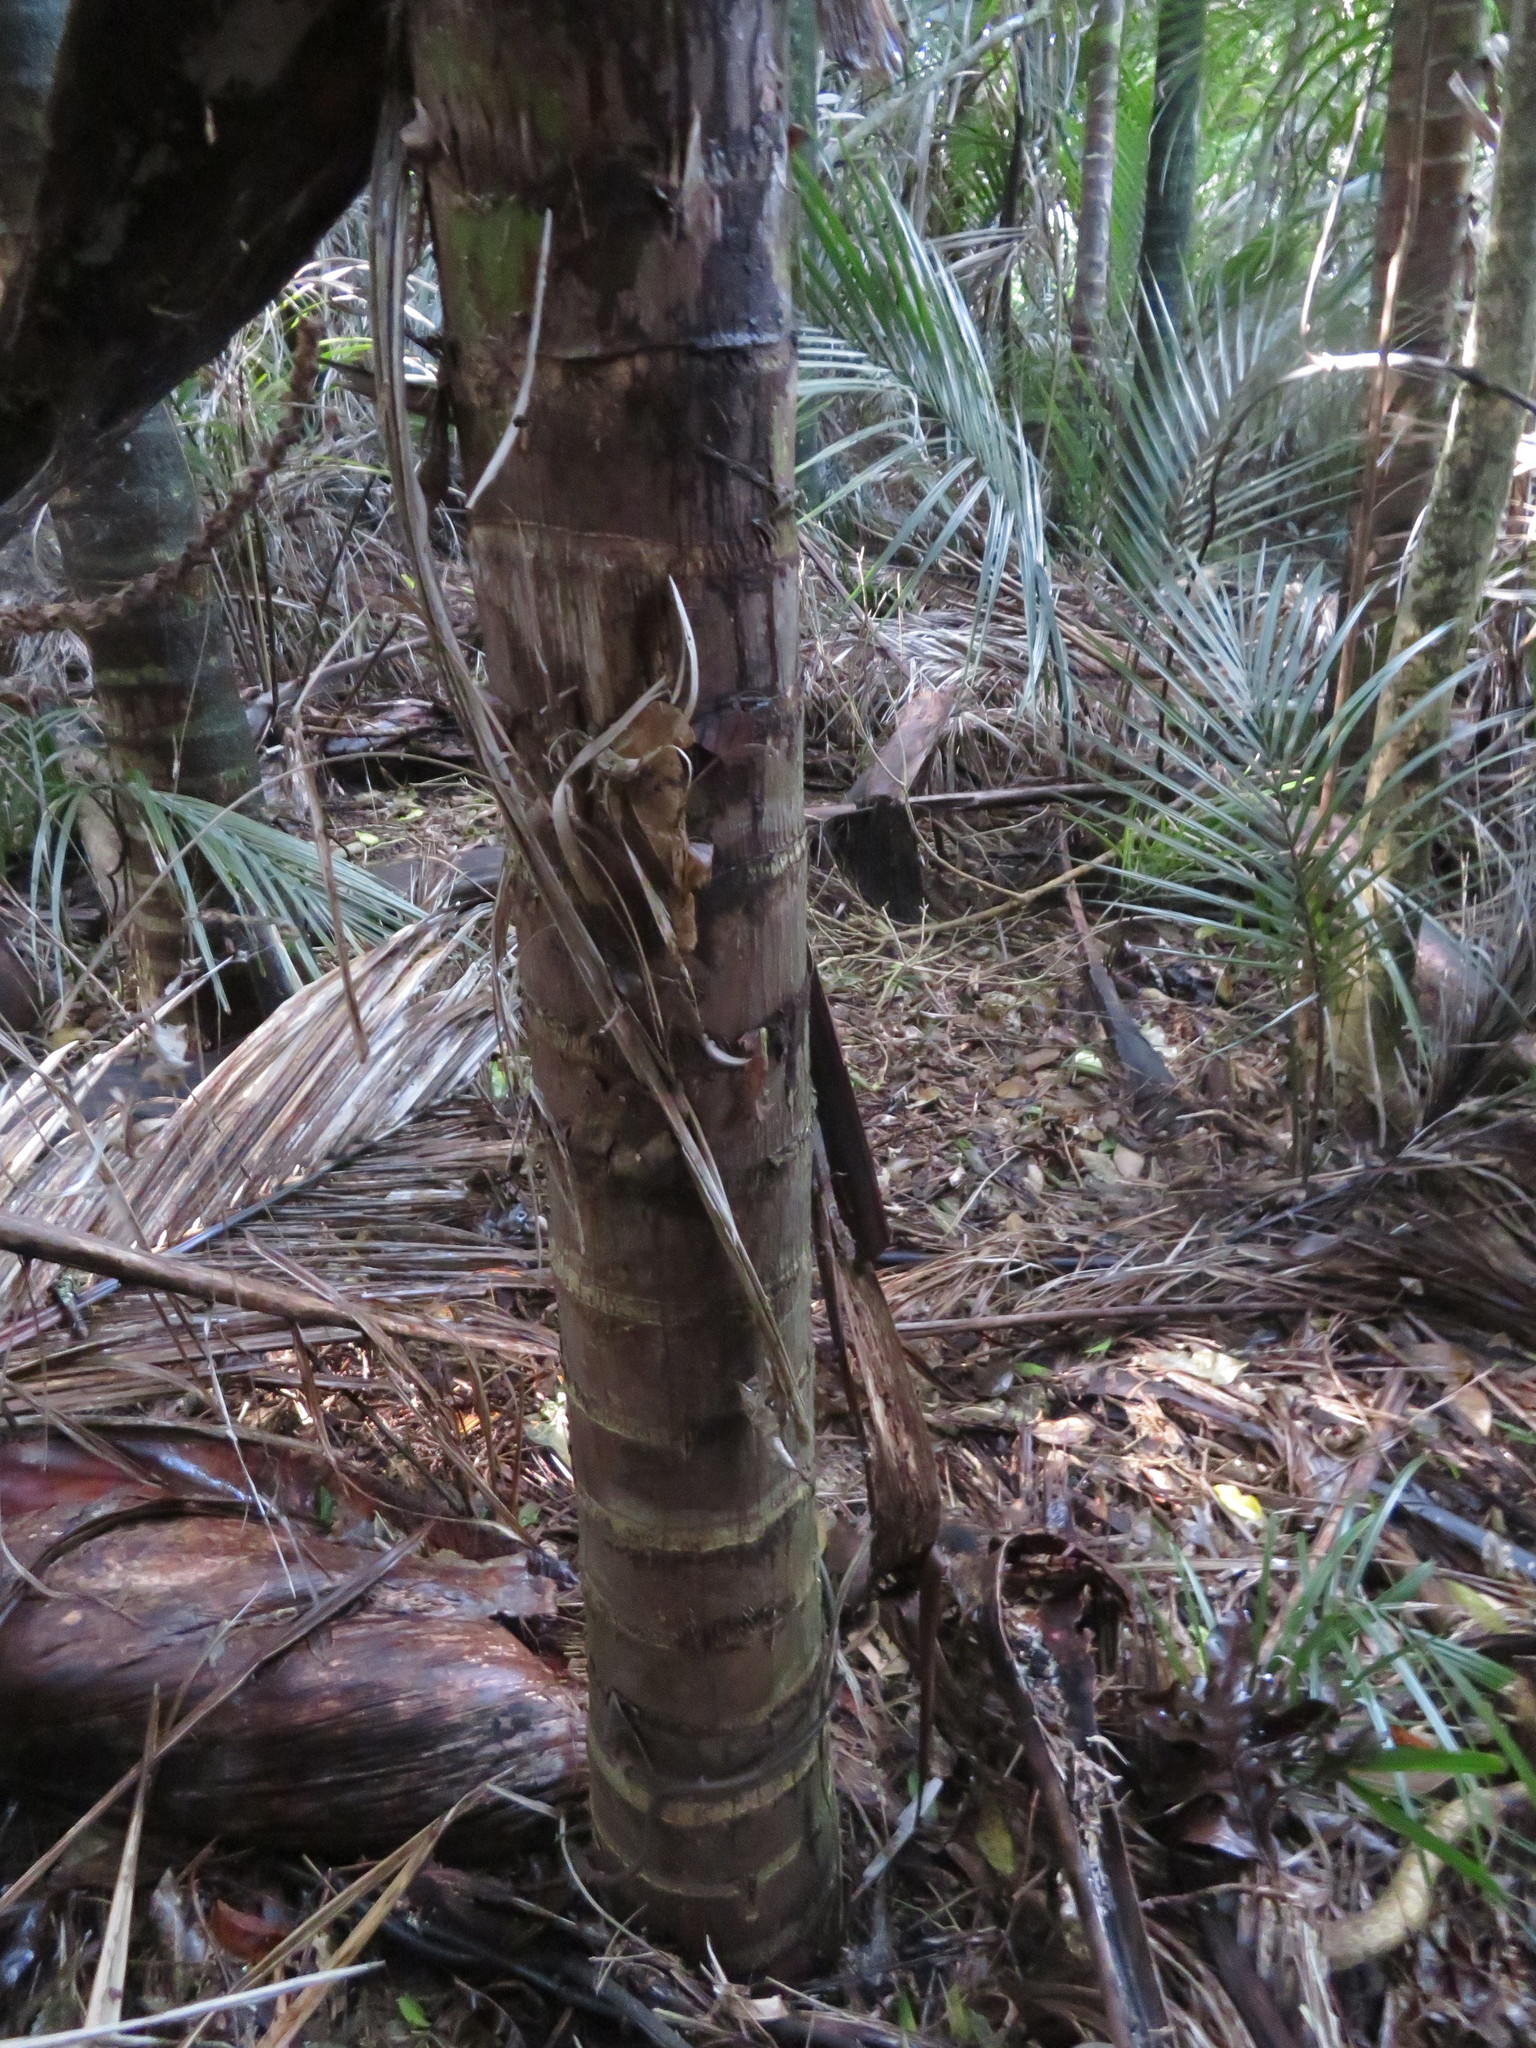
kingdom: Plantae
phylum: Tracheophyta
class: Liliopsida
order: Arecales
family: Arecaceae
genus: Rhopalostylis
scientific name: Rhopalostylis sapida
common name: Feather-duster palm
